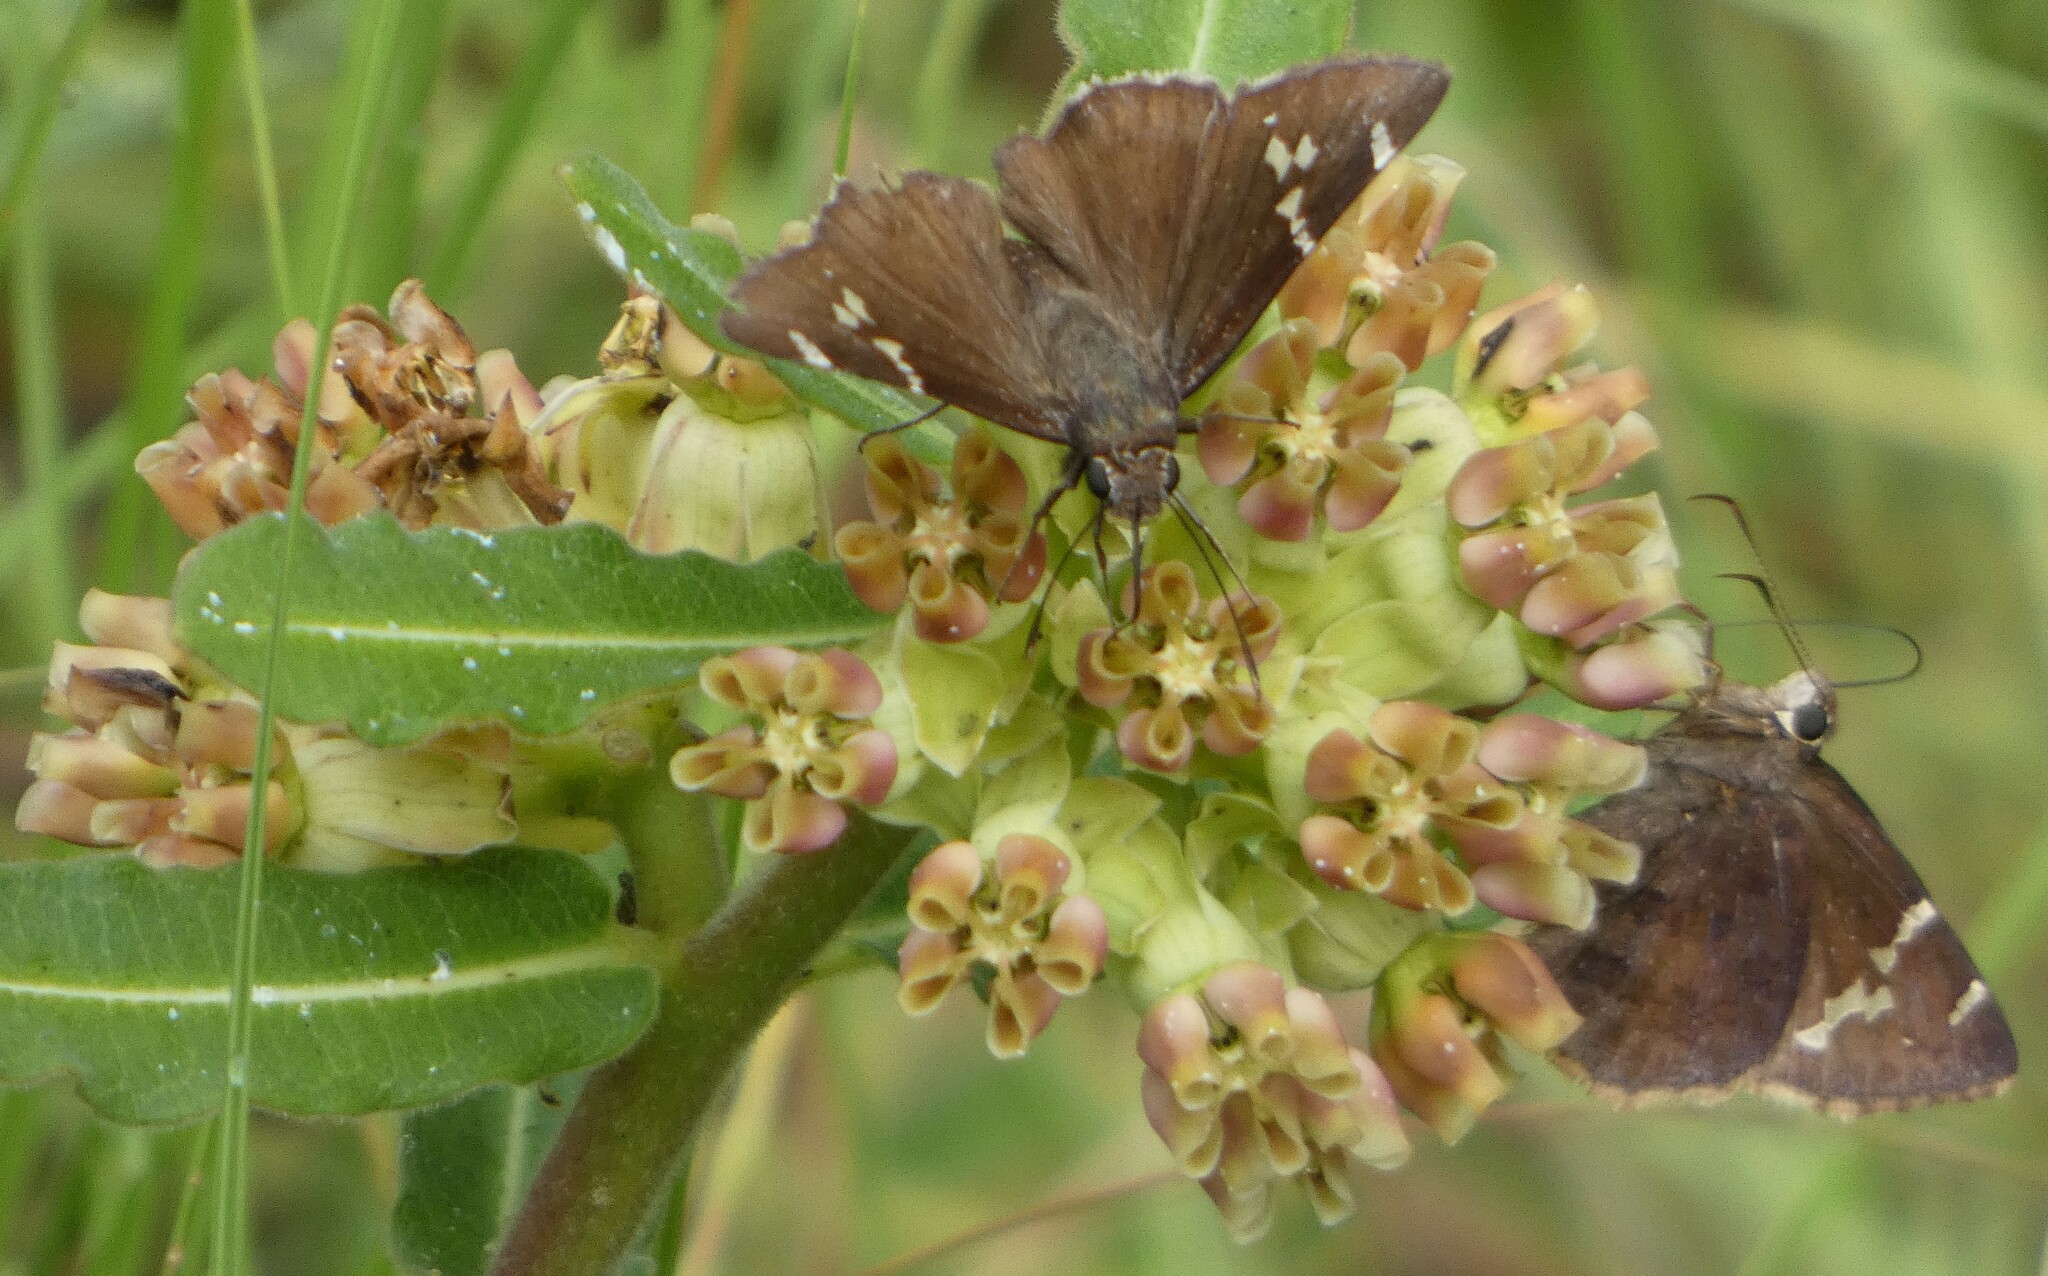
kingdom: Animalia
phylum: Arthropoda
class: Insecta
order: Lepidoptera
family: Hesperiidae
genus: Thorybes
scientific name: Thorybes daunus
